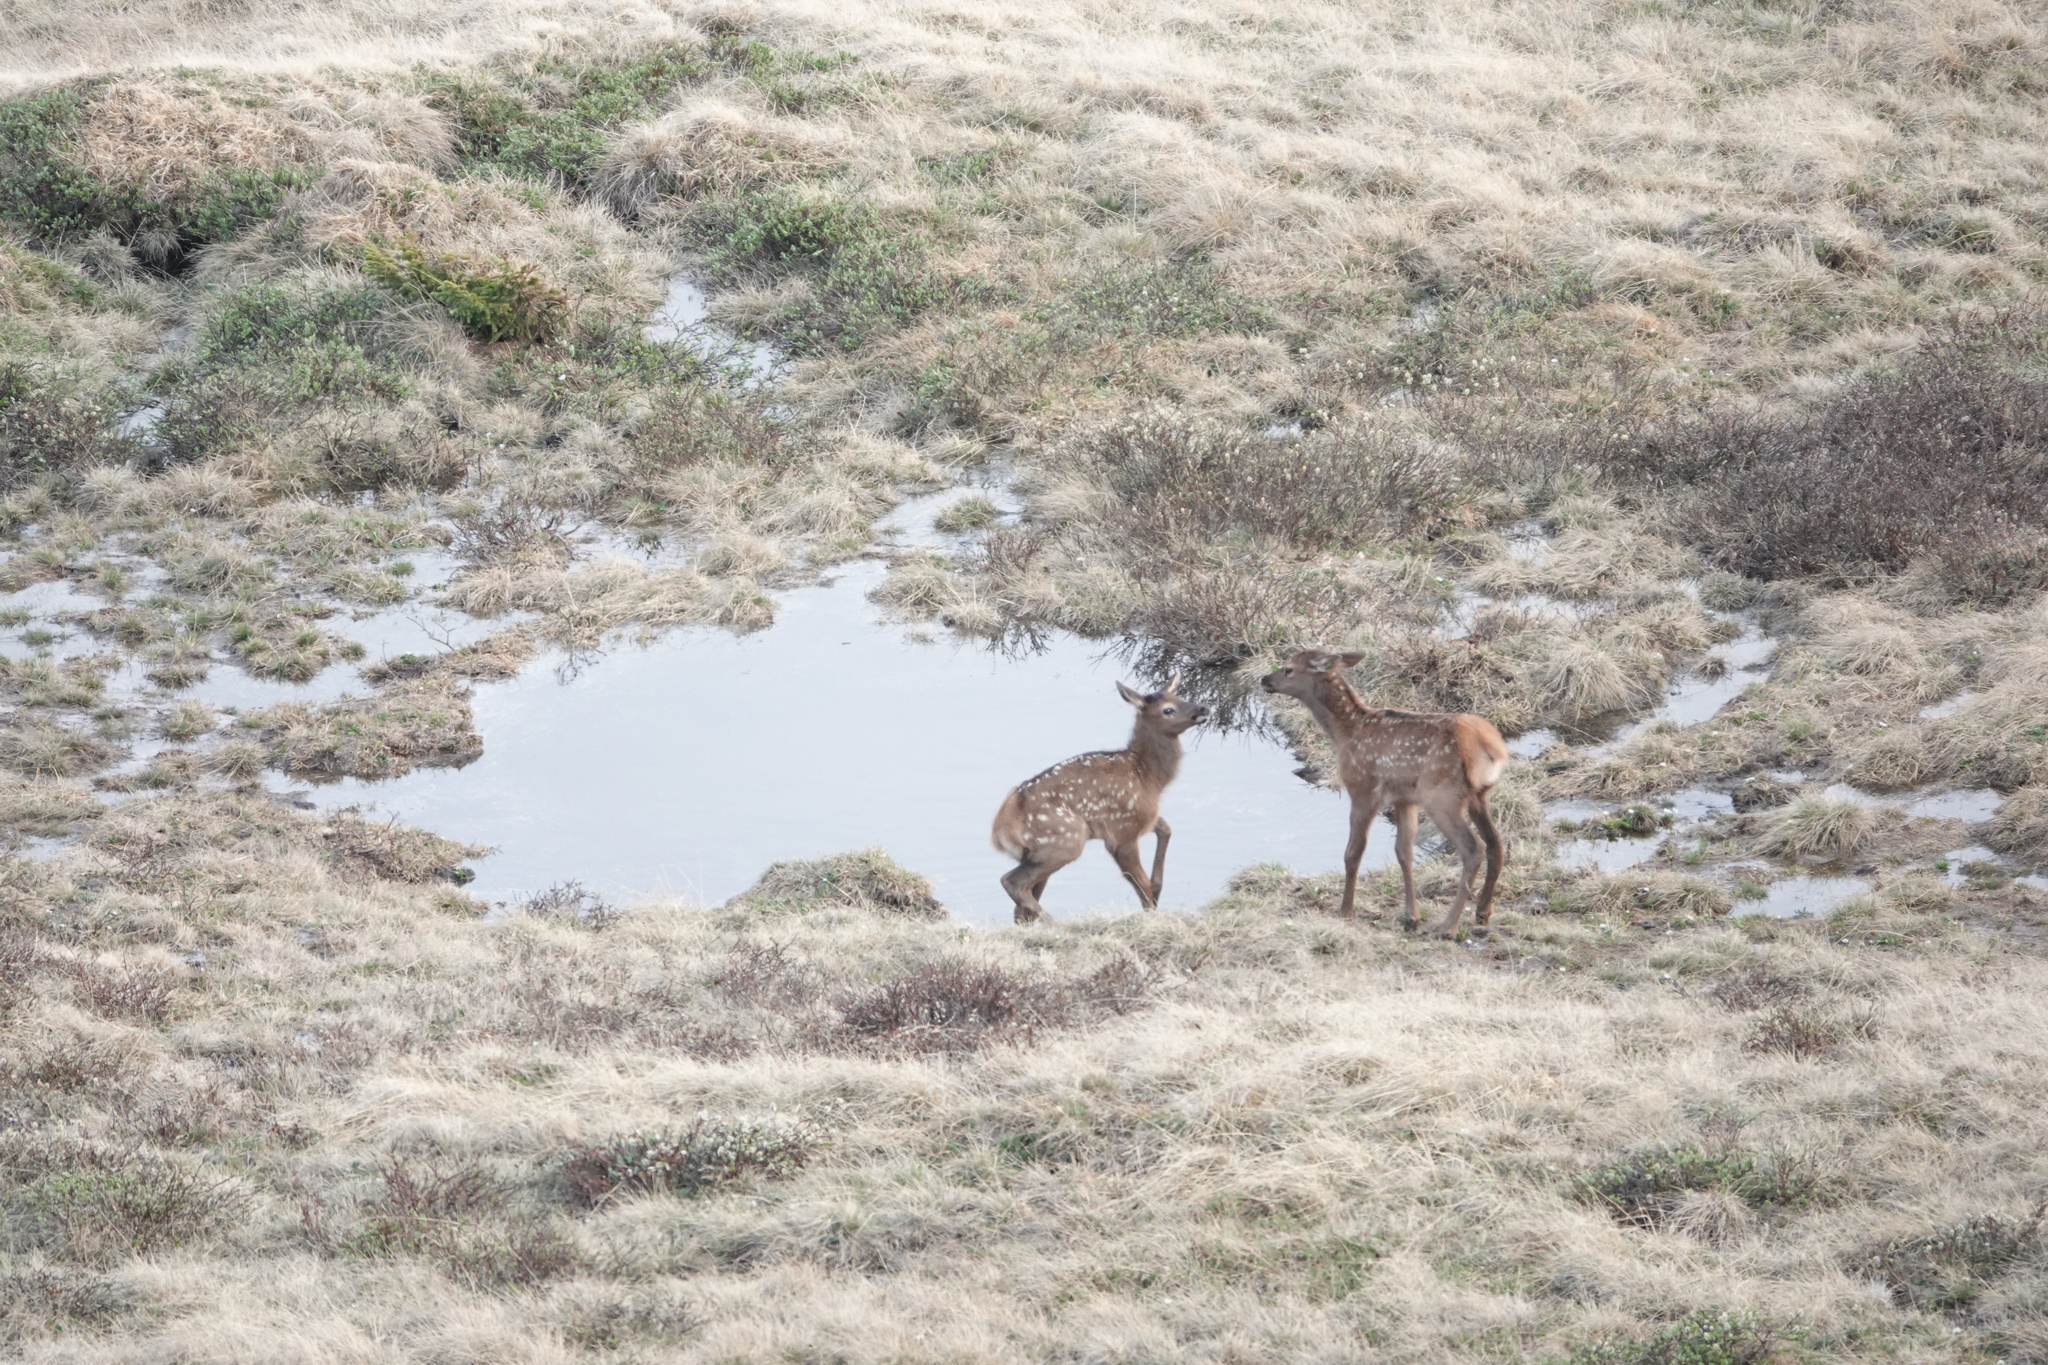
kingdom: Animalia
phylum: Chordata
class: Mammalia
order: Artiodactyla
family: Cervidae
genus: Cervus
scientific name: Cervus elaphus
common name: Red deer
